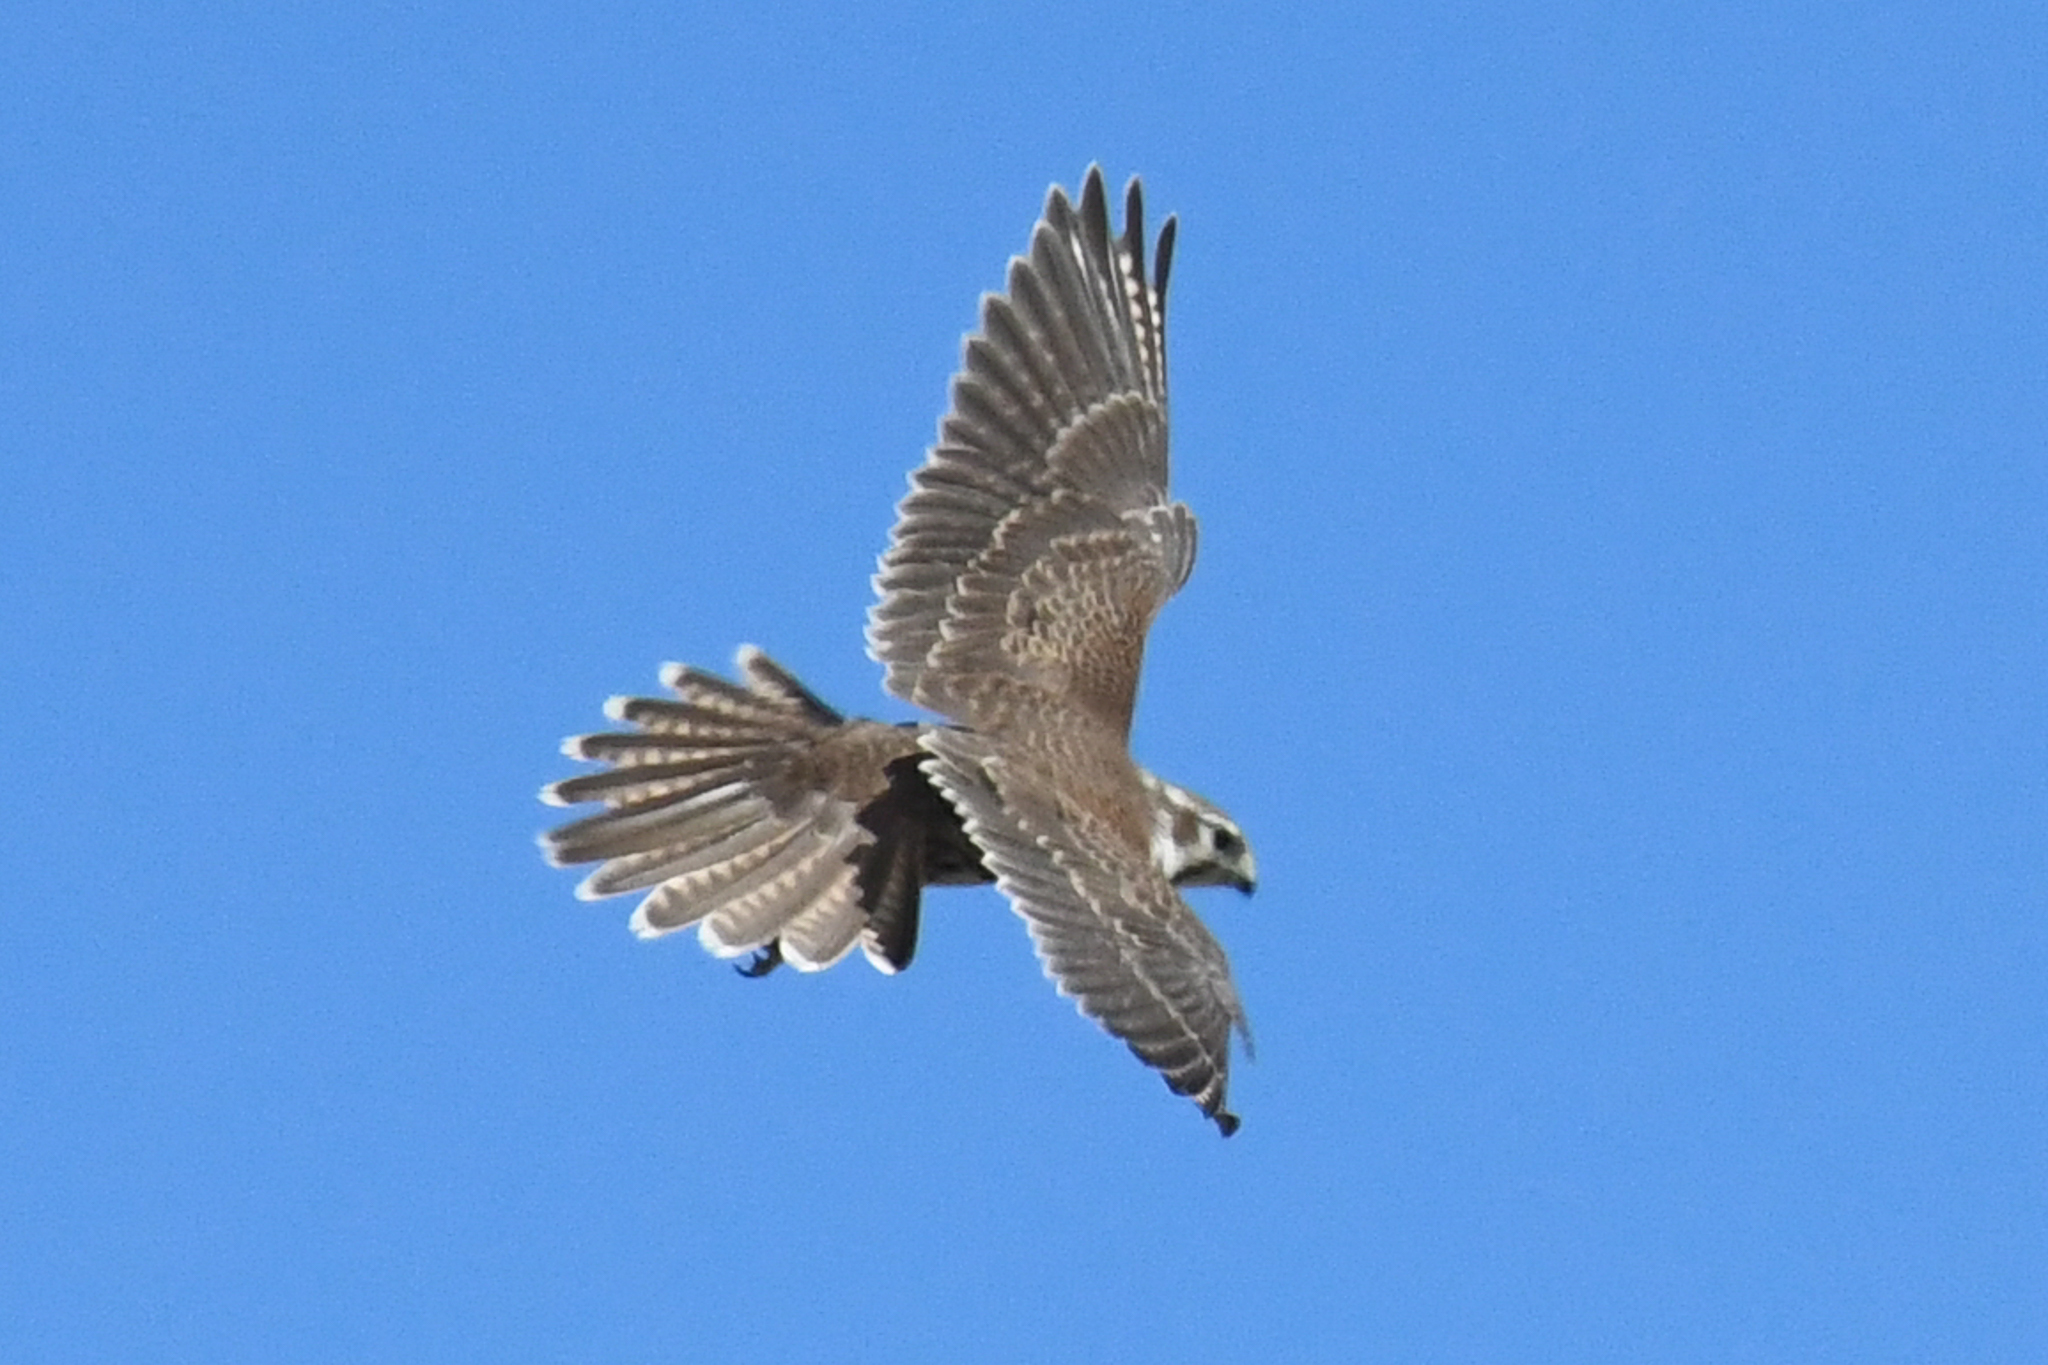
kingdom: Animalia
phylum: Chordata
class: Aves
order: Falconiformes
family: Falconidae
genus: Falco
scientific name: Falco mexicanus
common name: Prairie falcon
